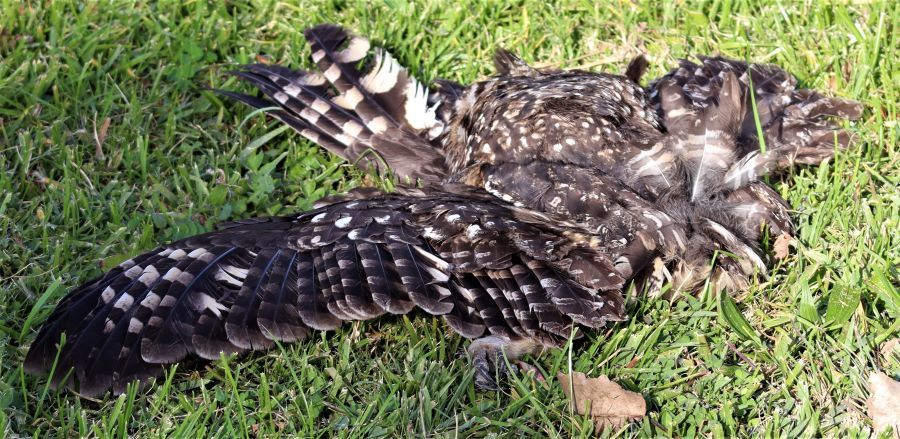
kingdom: Animalia
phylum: Chordata
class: Aves
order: Strigiformes
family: Strigidae
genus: Bubo
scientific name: Bubo africanus
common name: Spotted eagle-owl
